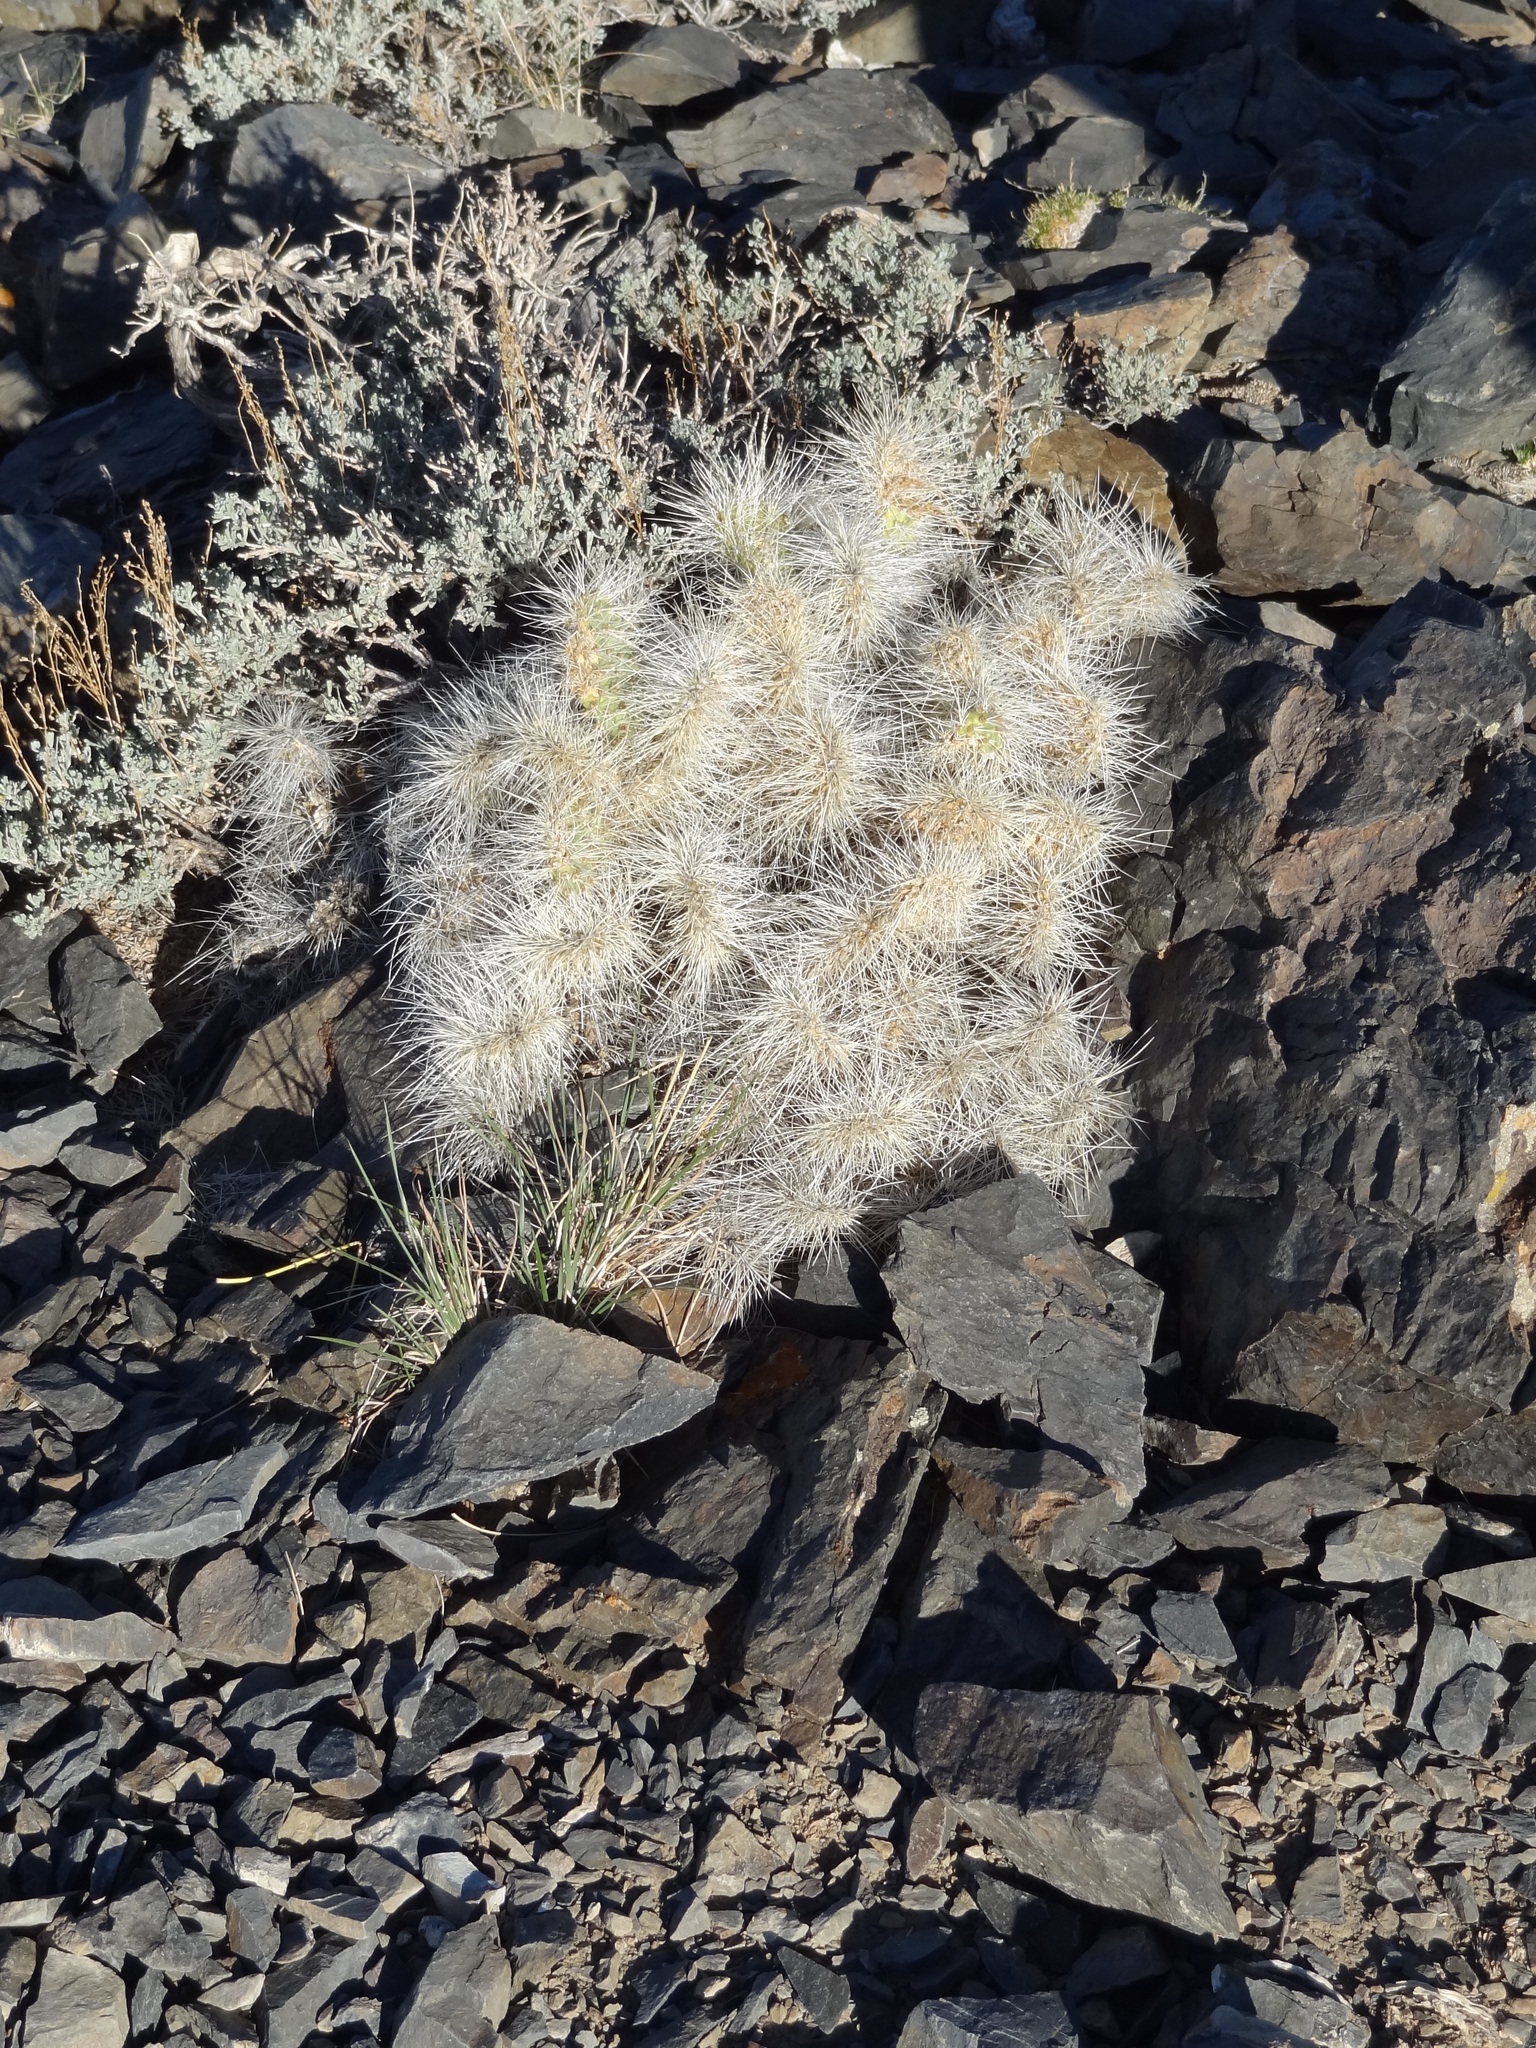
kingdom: Plantae
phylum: Tracheophyta
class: Magnoliopsida
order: Caryophyllales
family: Cactaceae
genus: Opuntia
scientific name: Opuntia polyacantha
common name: Plains prickly-pear
